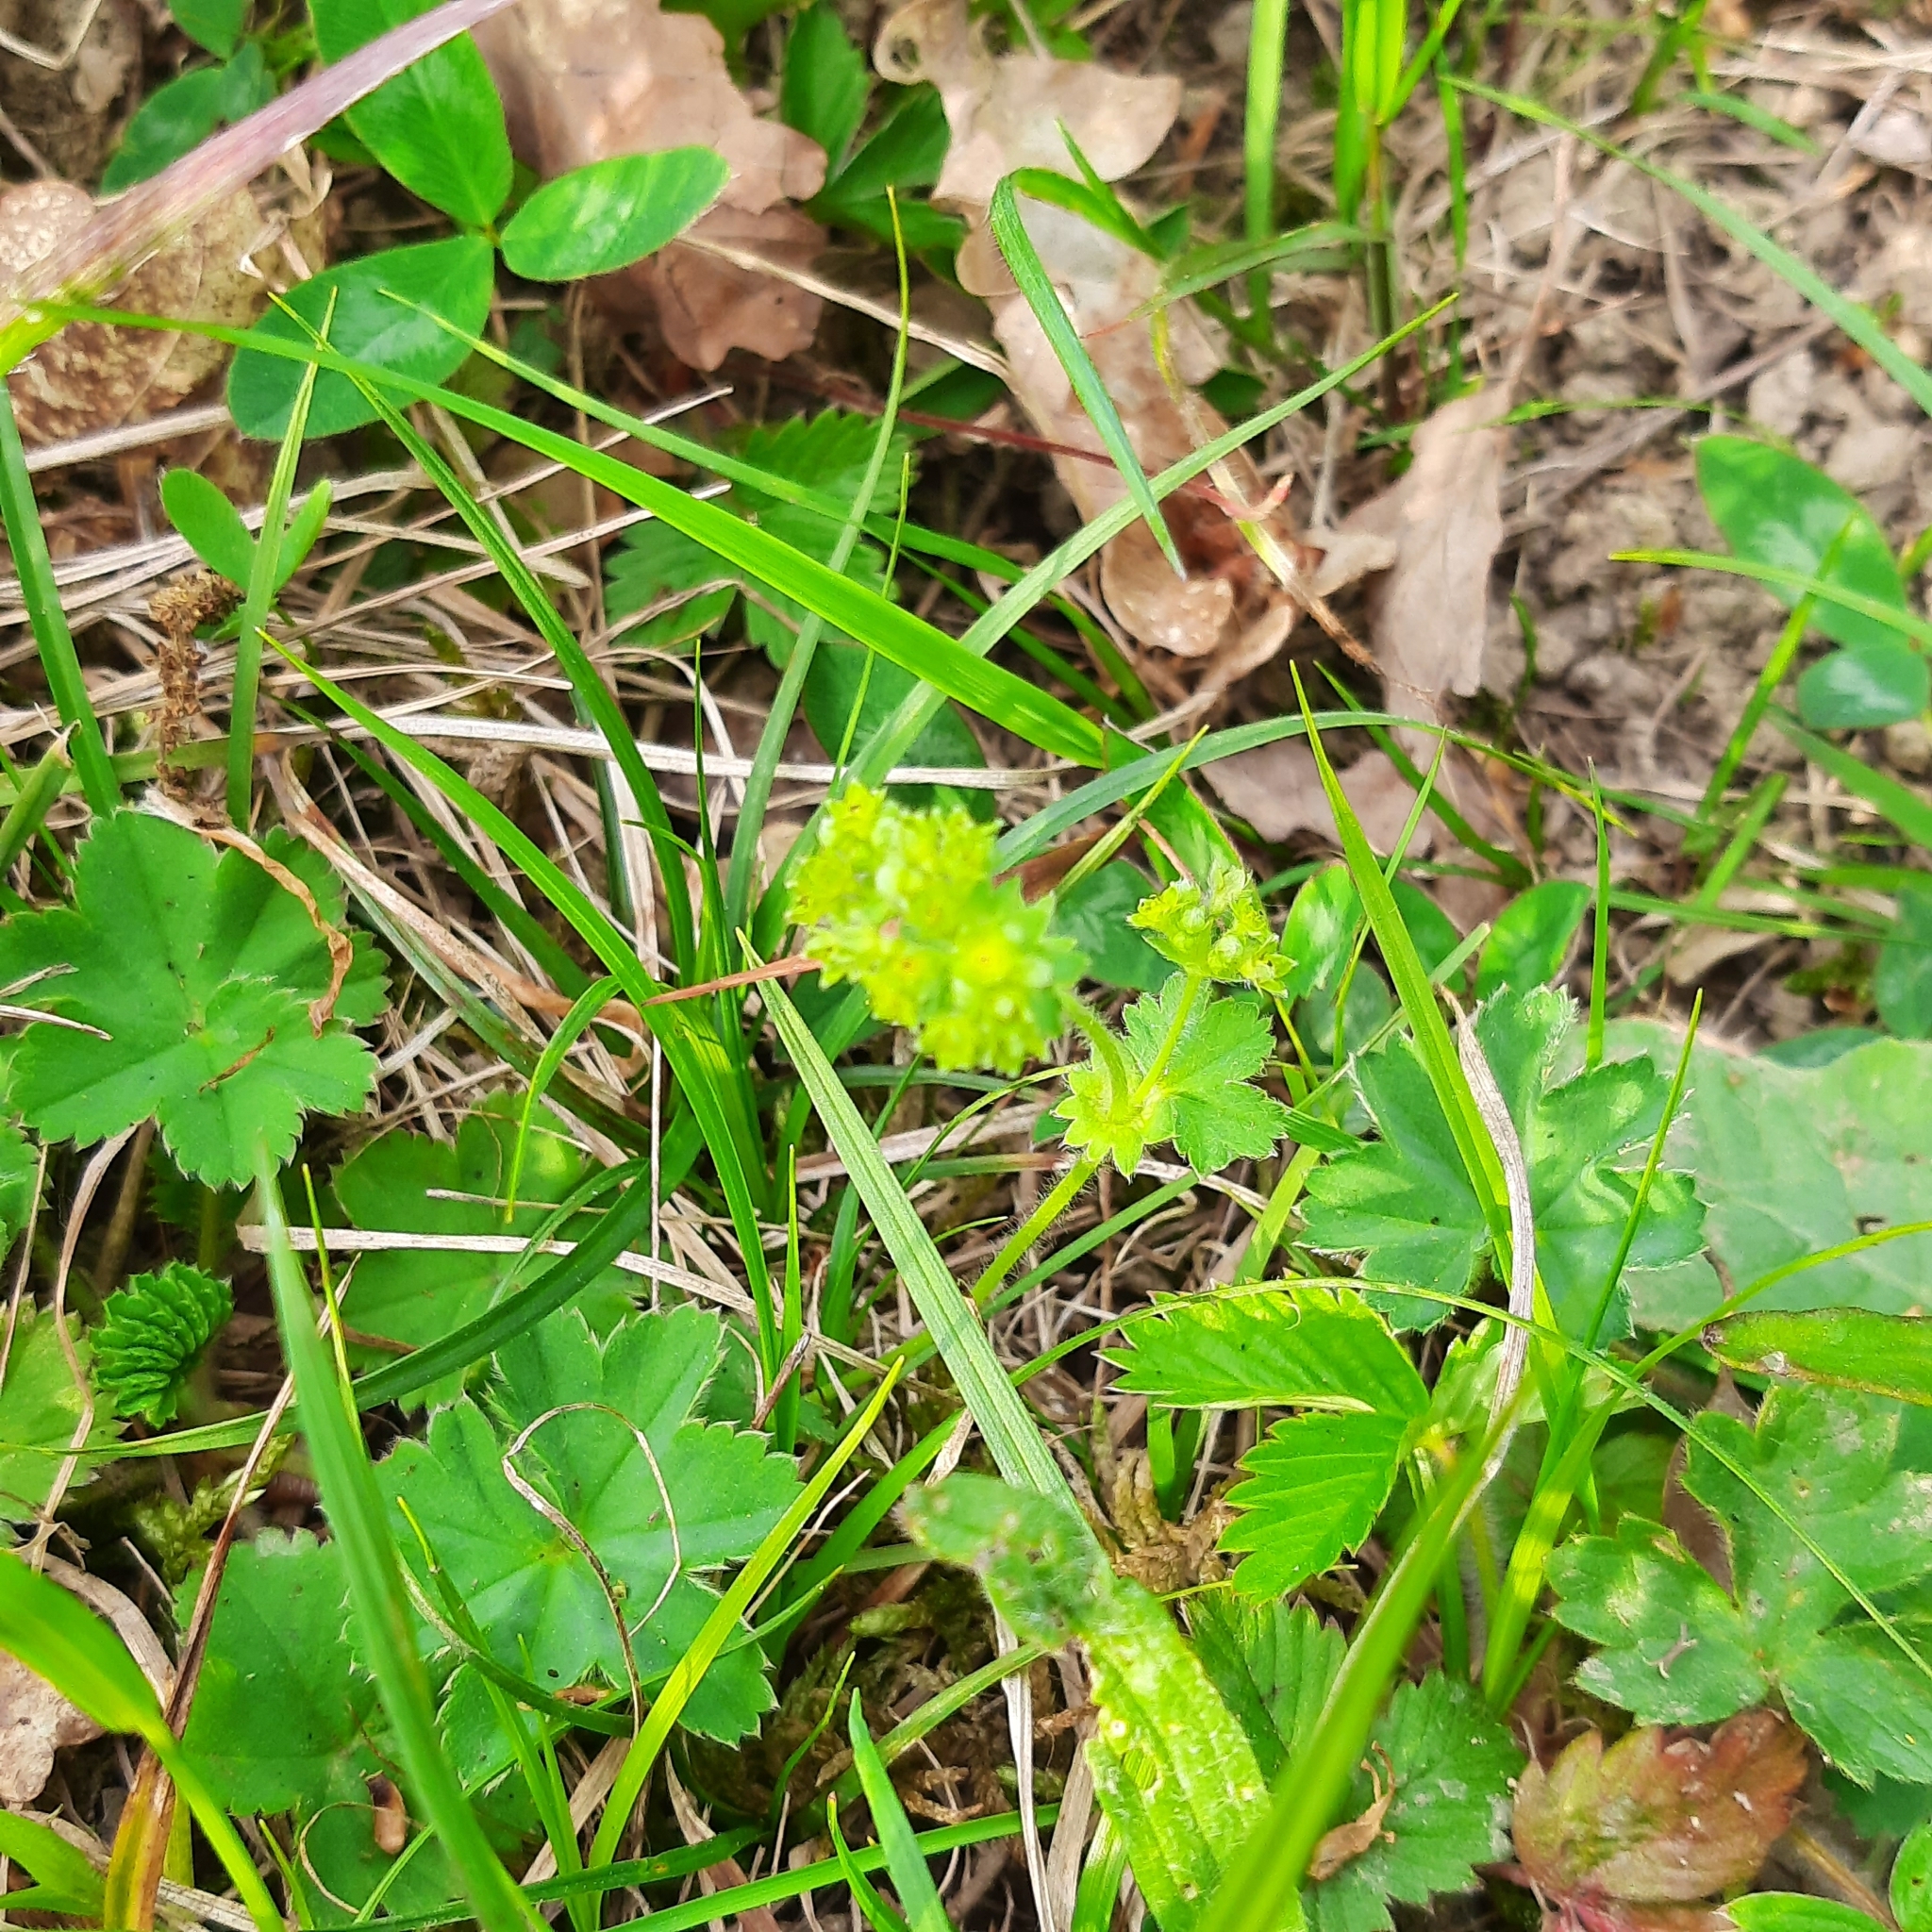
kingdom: Plantae
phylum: Tracheophyta
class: Magnoliopsida
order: Rosales
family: Rosaceae
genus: Alchemilla
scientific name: Alchemilla glaucescens
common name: Silky lady's mantle
